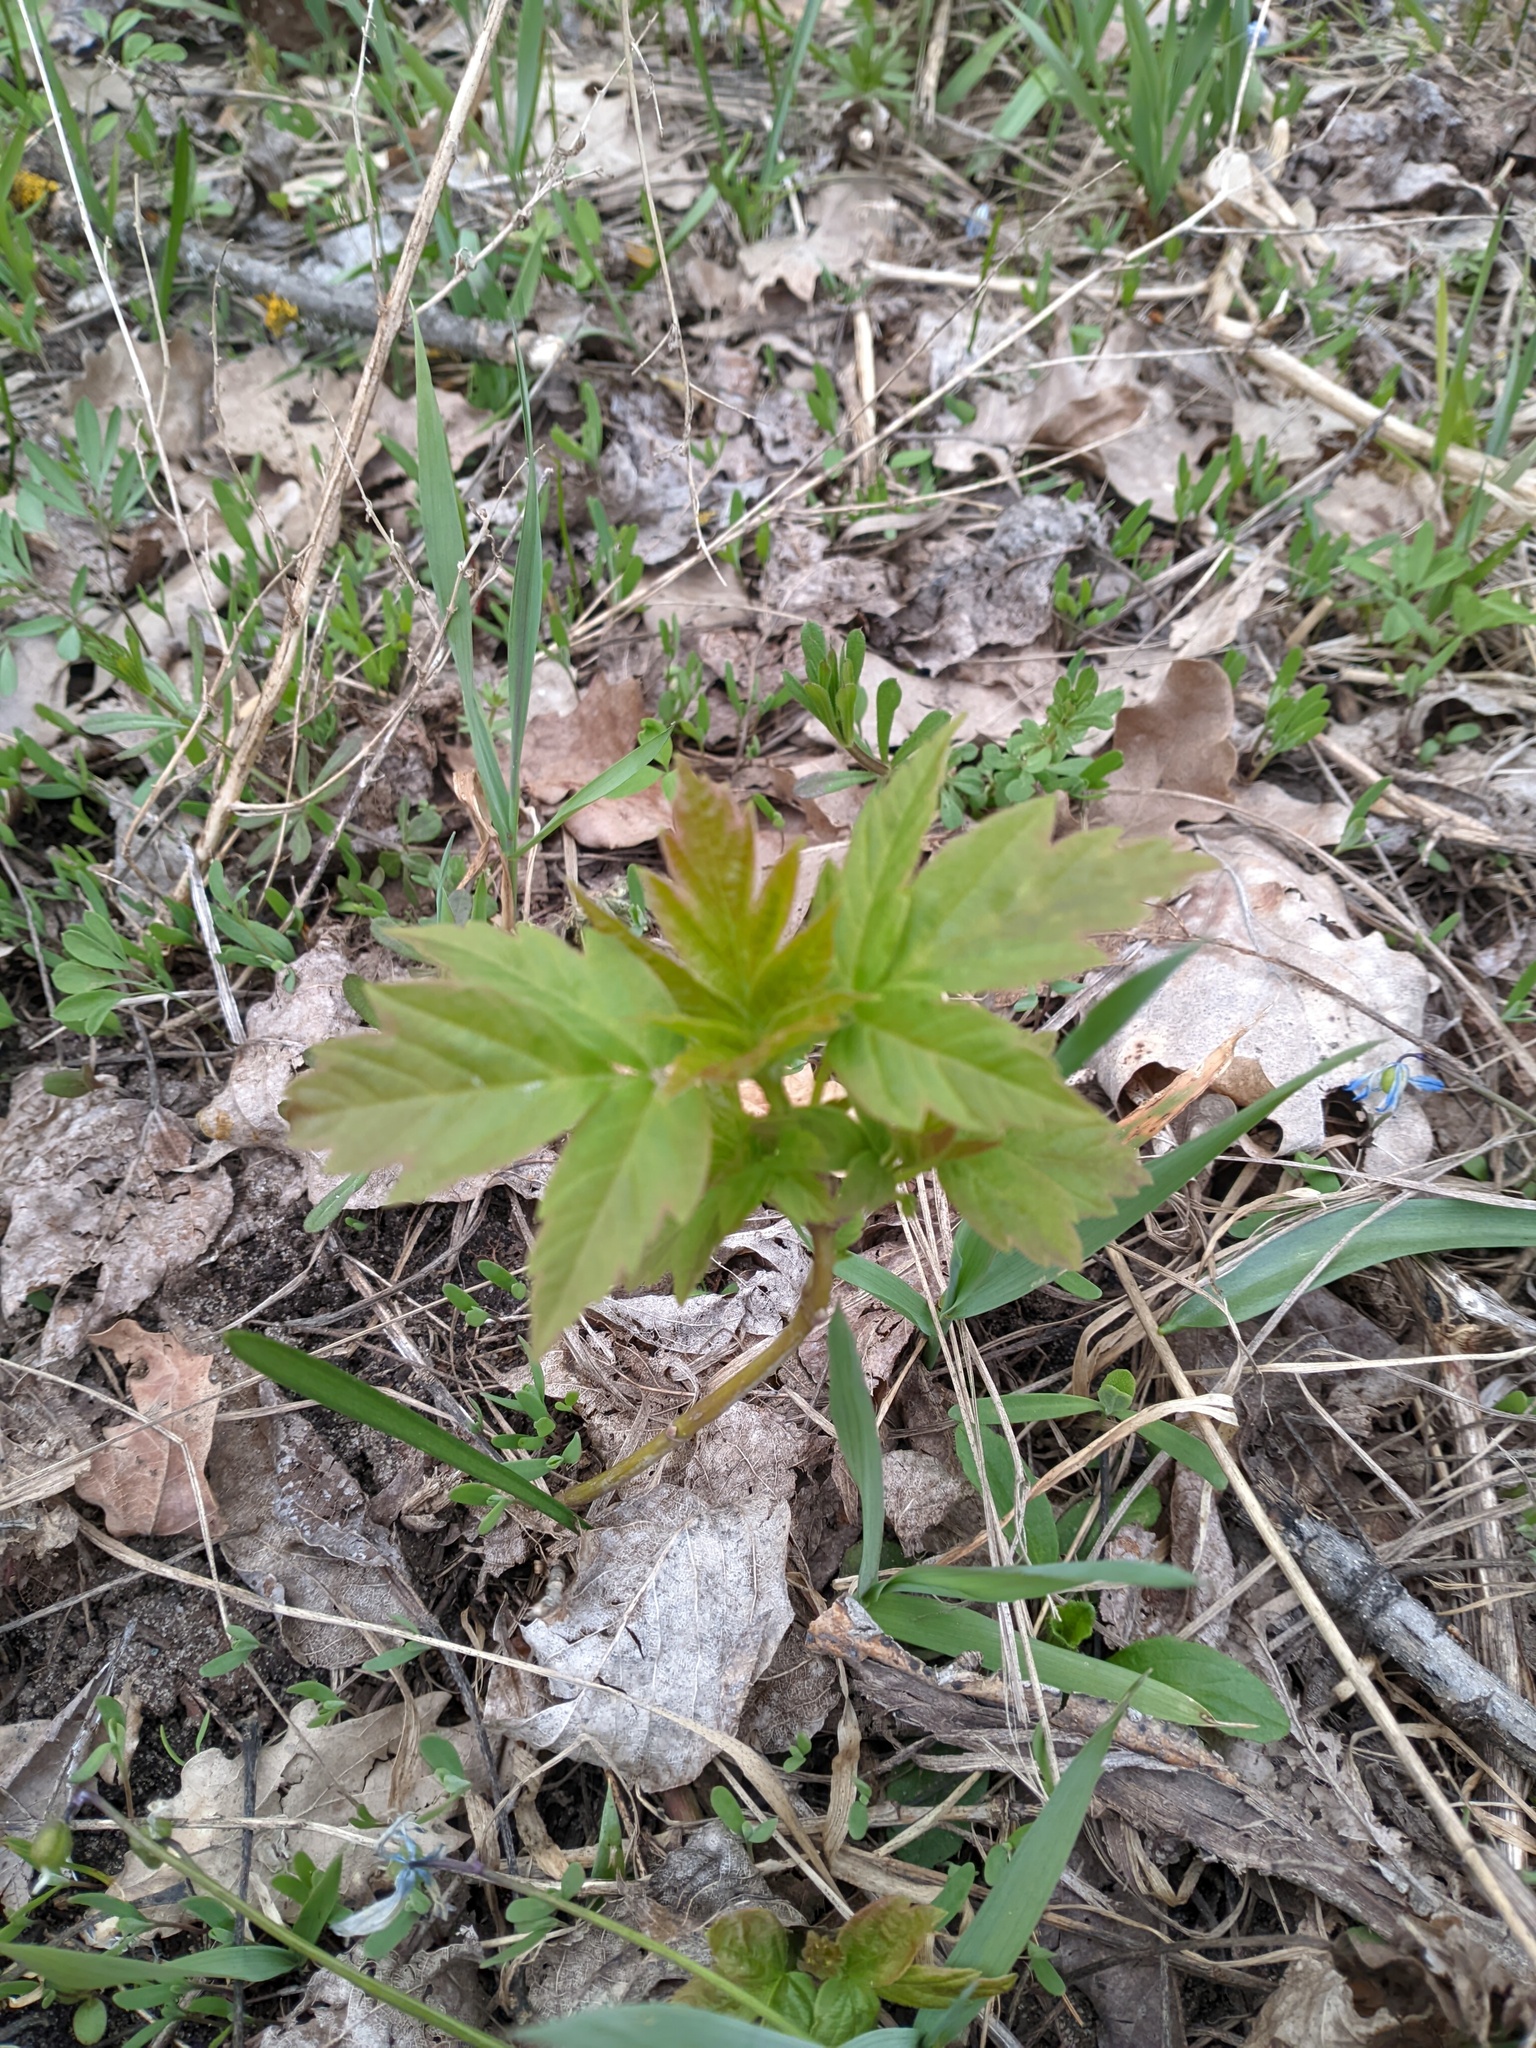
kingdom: Plantae
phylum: Tracheophyta
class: Magnoliopsida
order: Sapindales
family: Sapindaceae
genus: Acer
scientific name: Acer negundo
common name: Ashleaf maple
